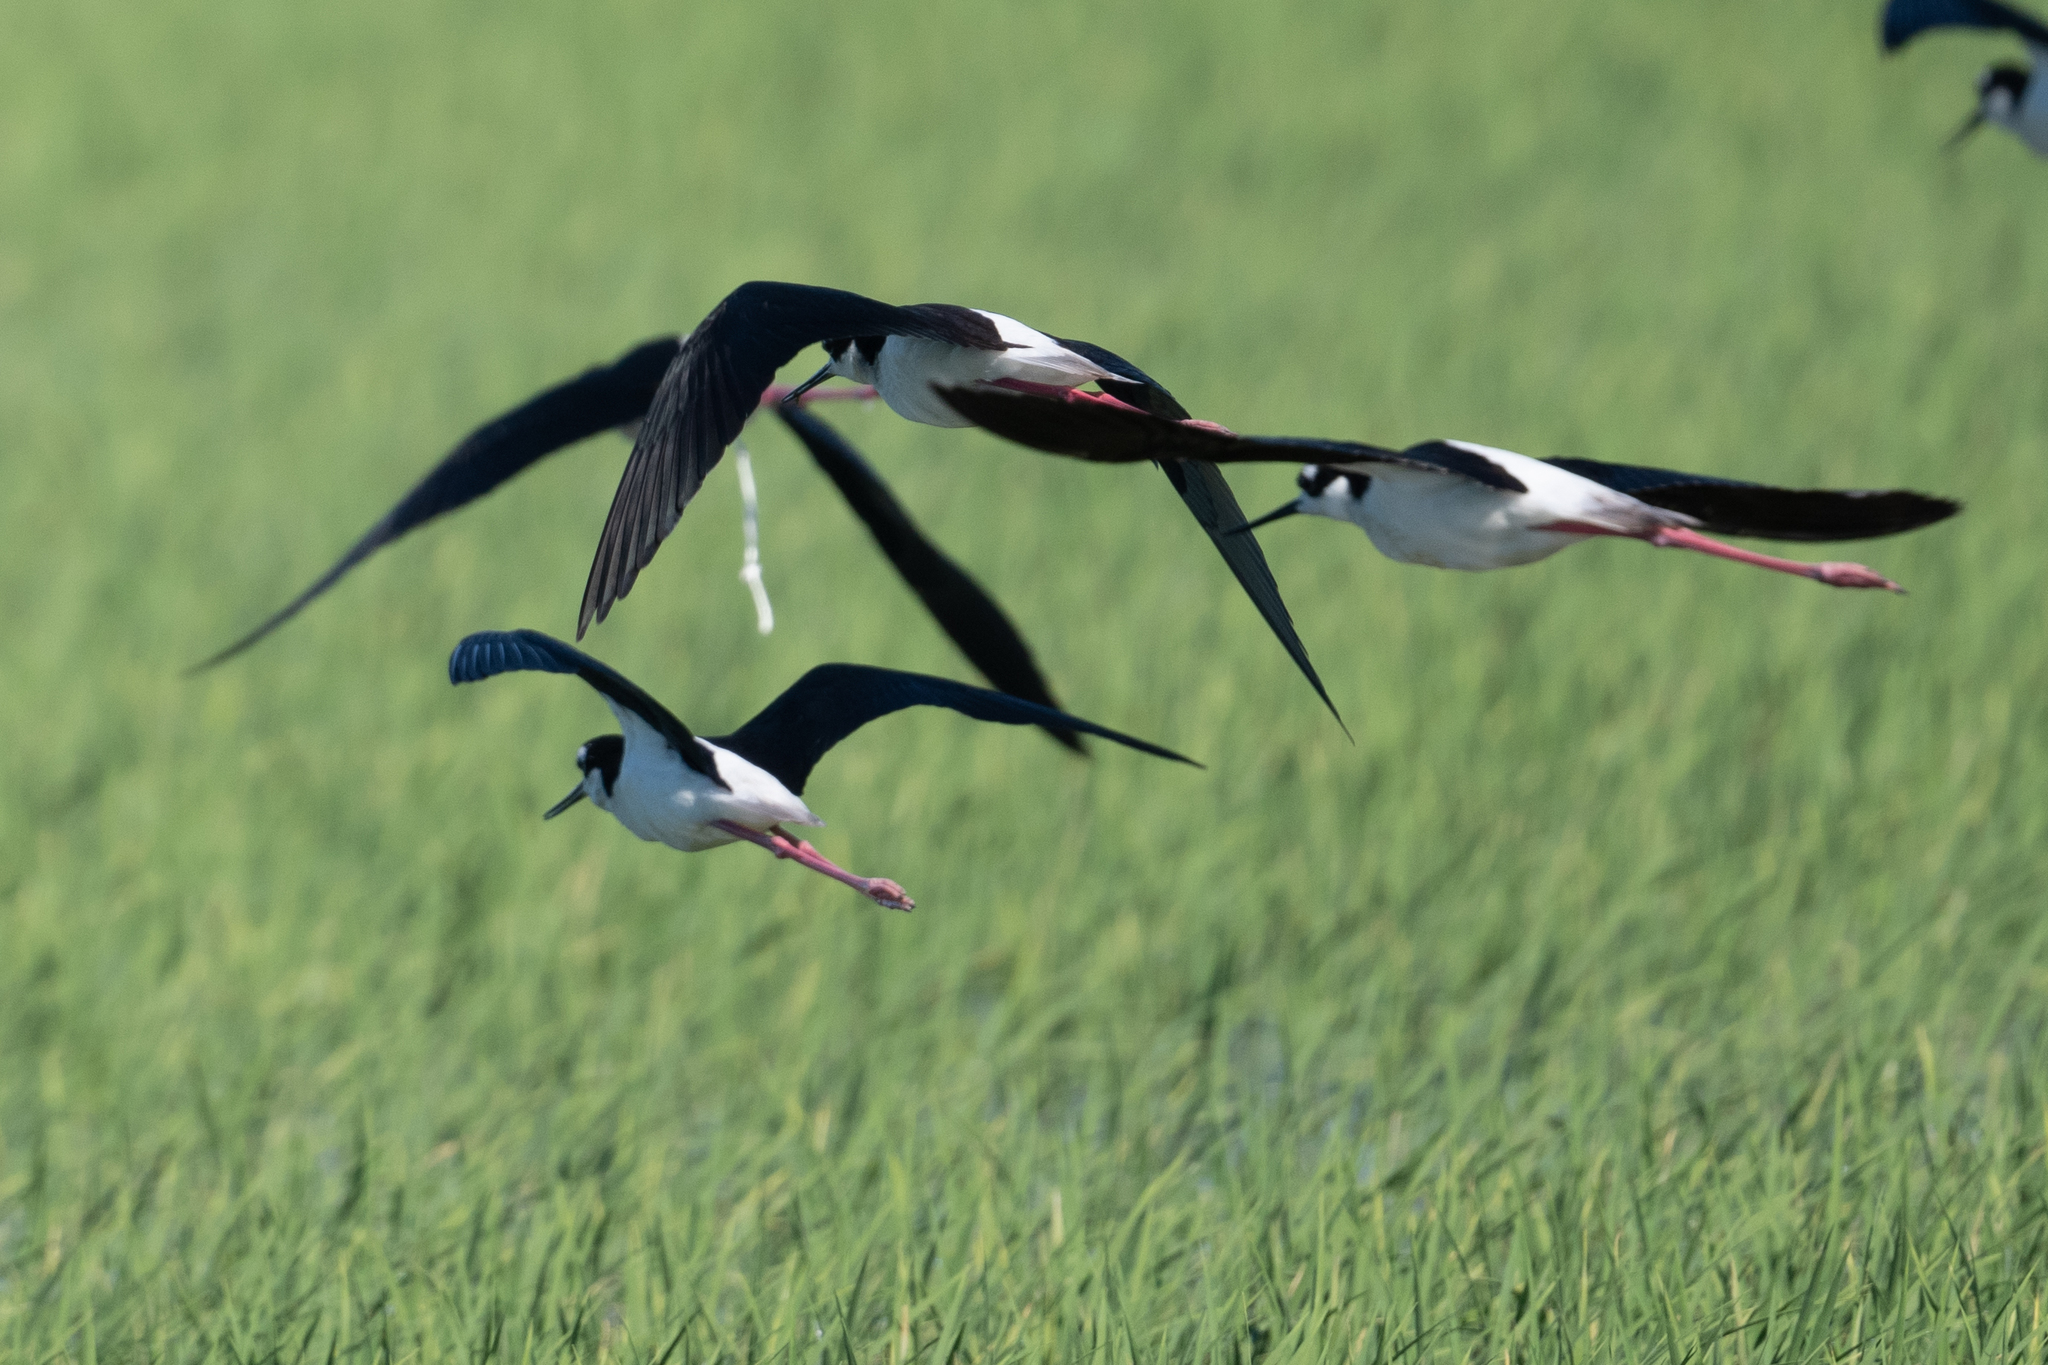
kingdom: Animalia
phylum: Chordata
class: Aves
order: Charadriiformes
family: Recurvirostridae
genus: Himantopus
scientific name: Himantopus mexicanus
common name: Black-necked stilt
